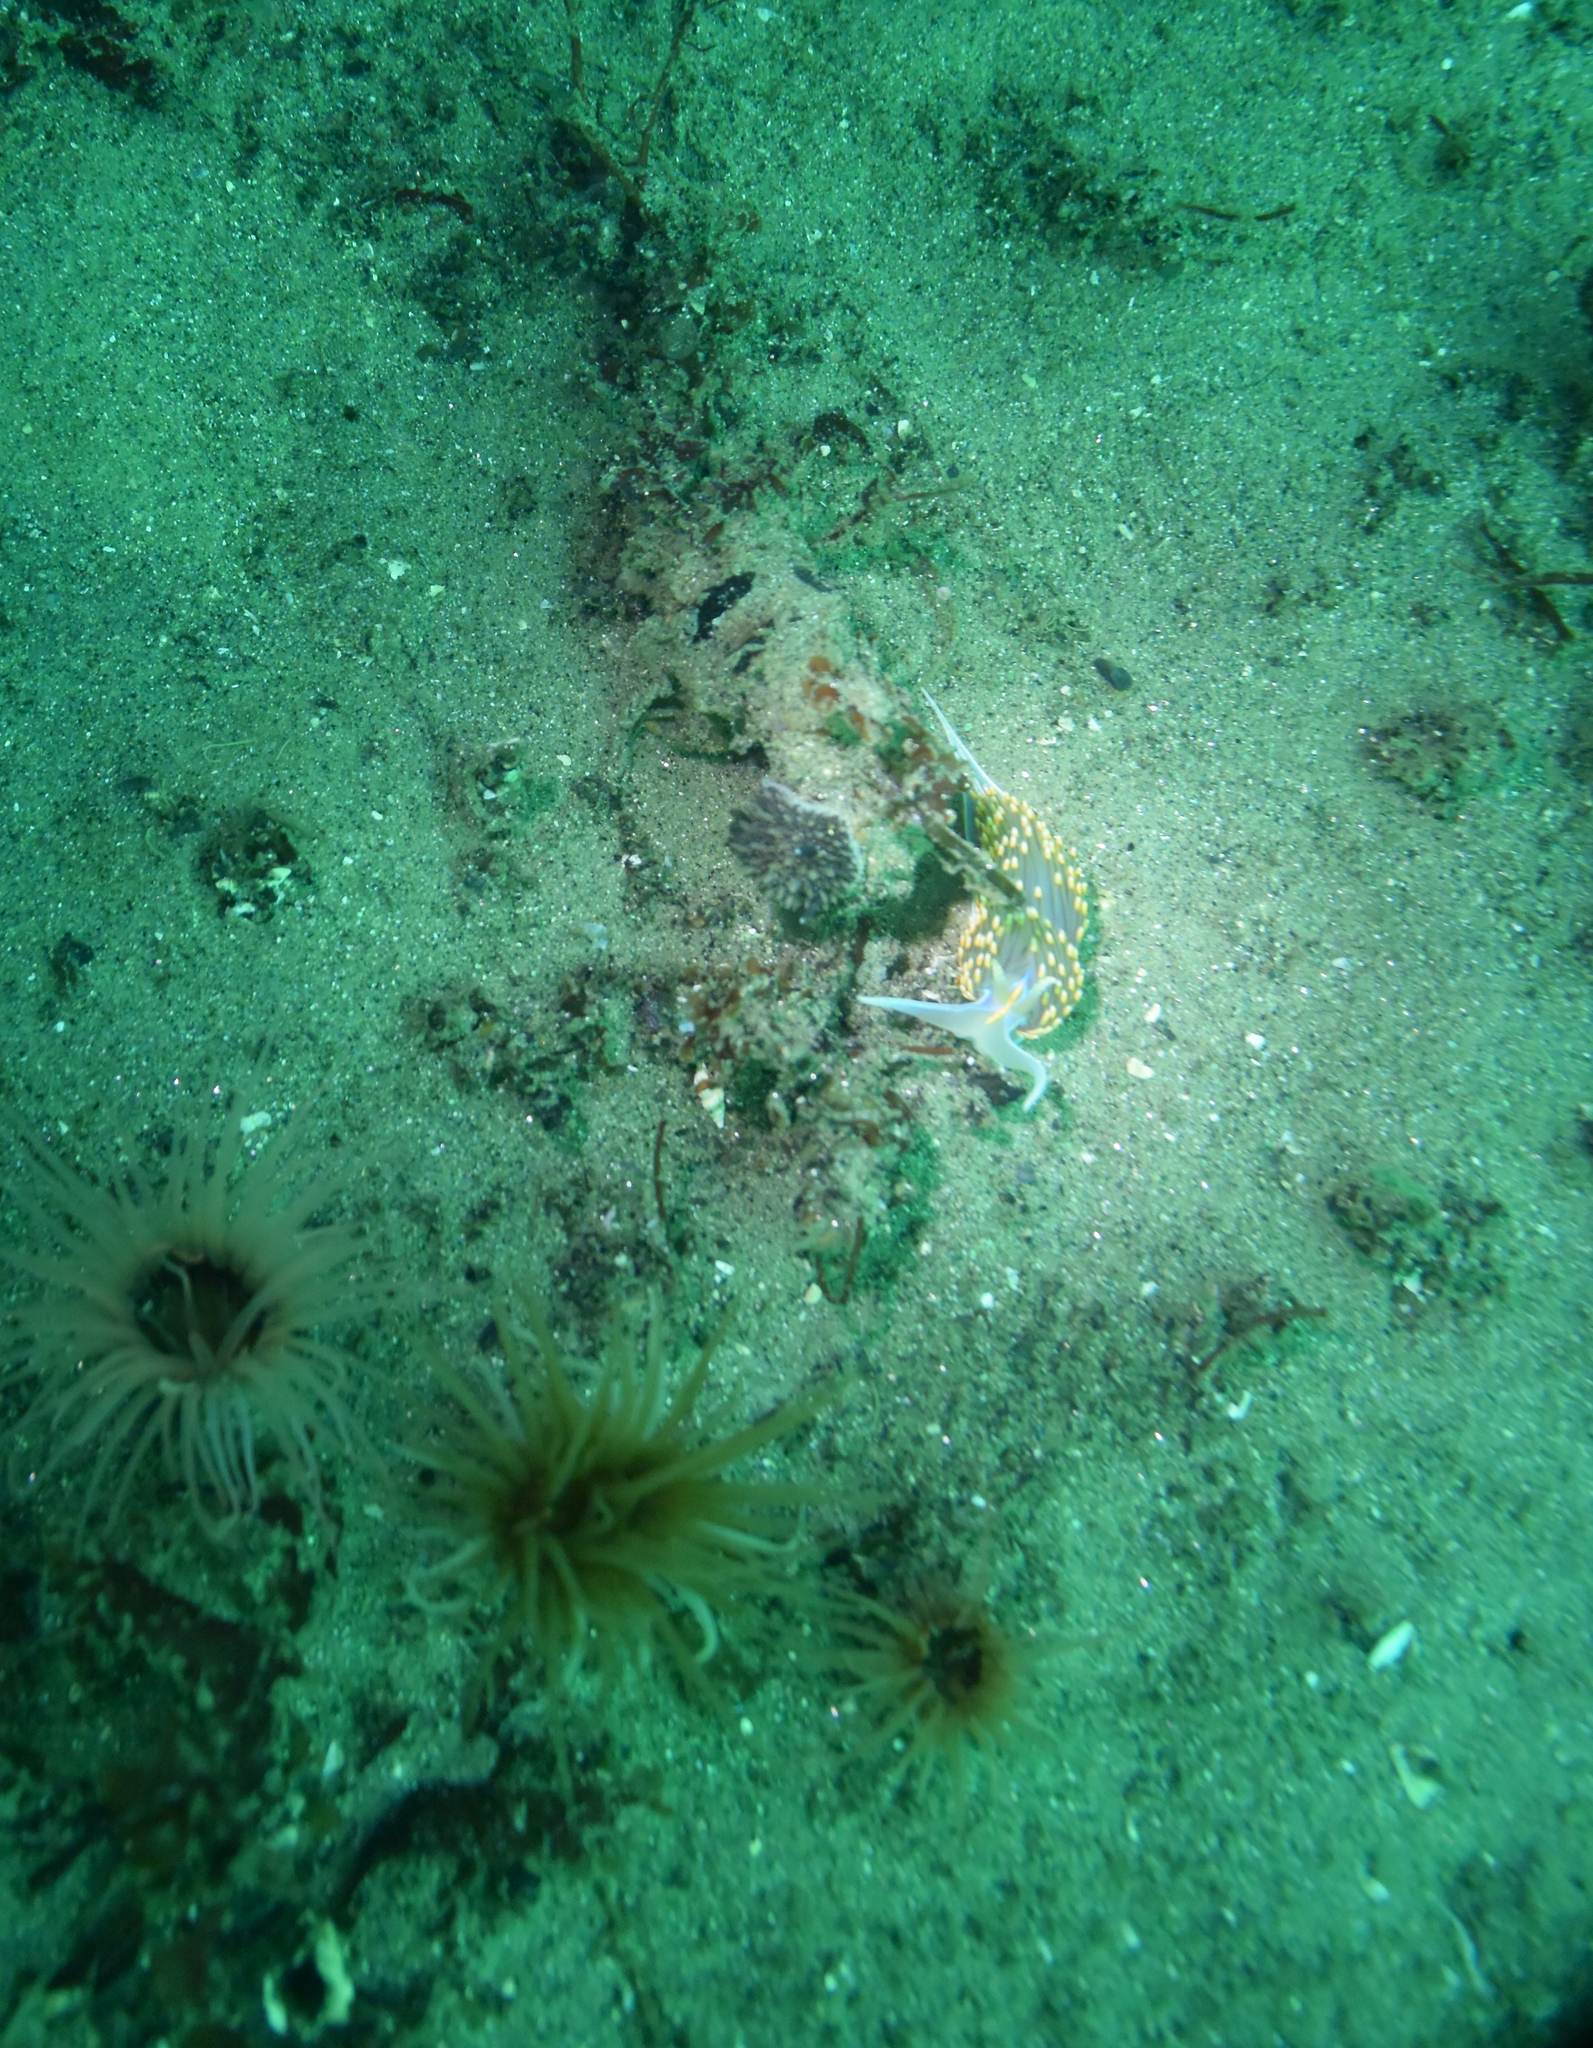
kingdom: Animalia
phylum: Mollusca
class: Gastropoda
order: Nudibranchia
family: Onchidorididae
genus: Acanthodoris
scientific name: Acanthodoris brunnea
